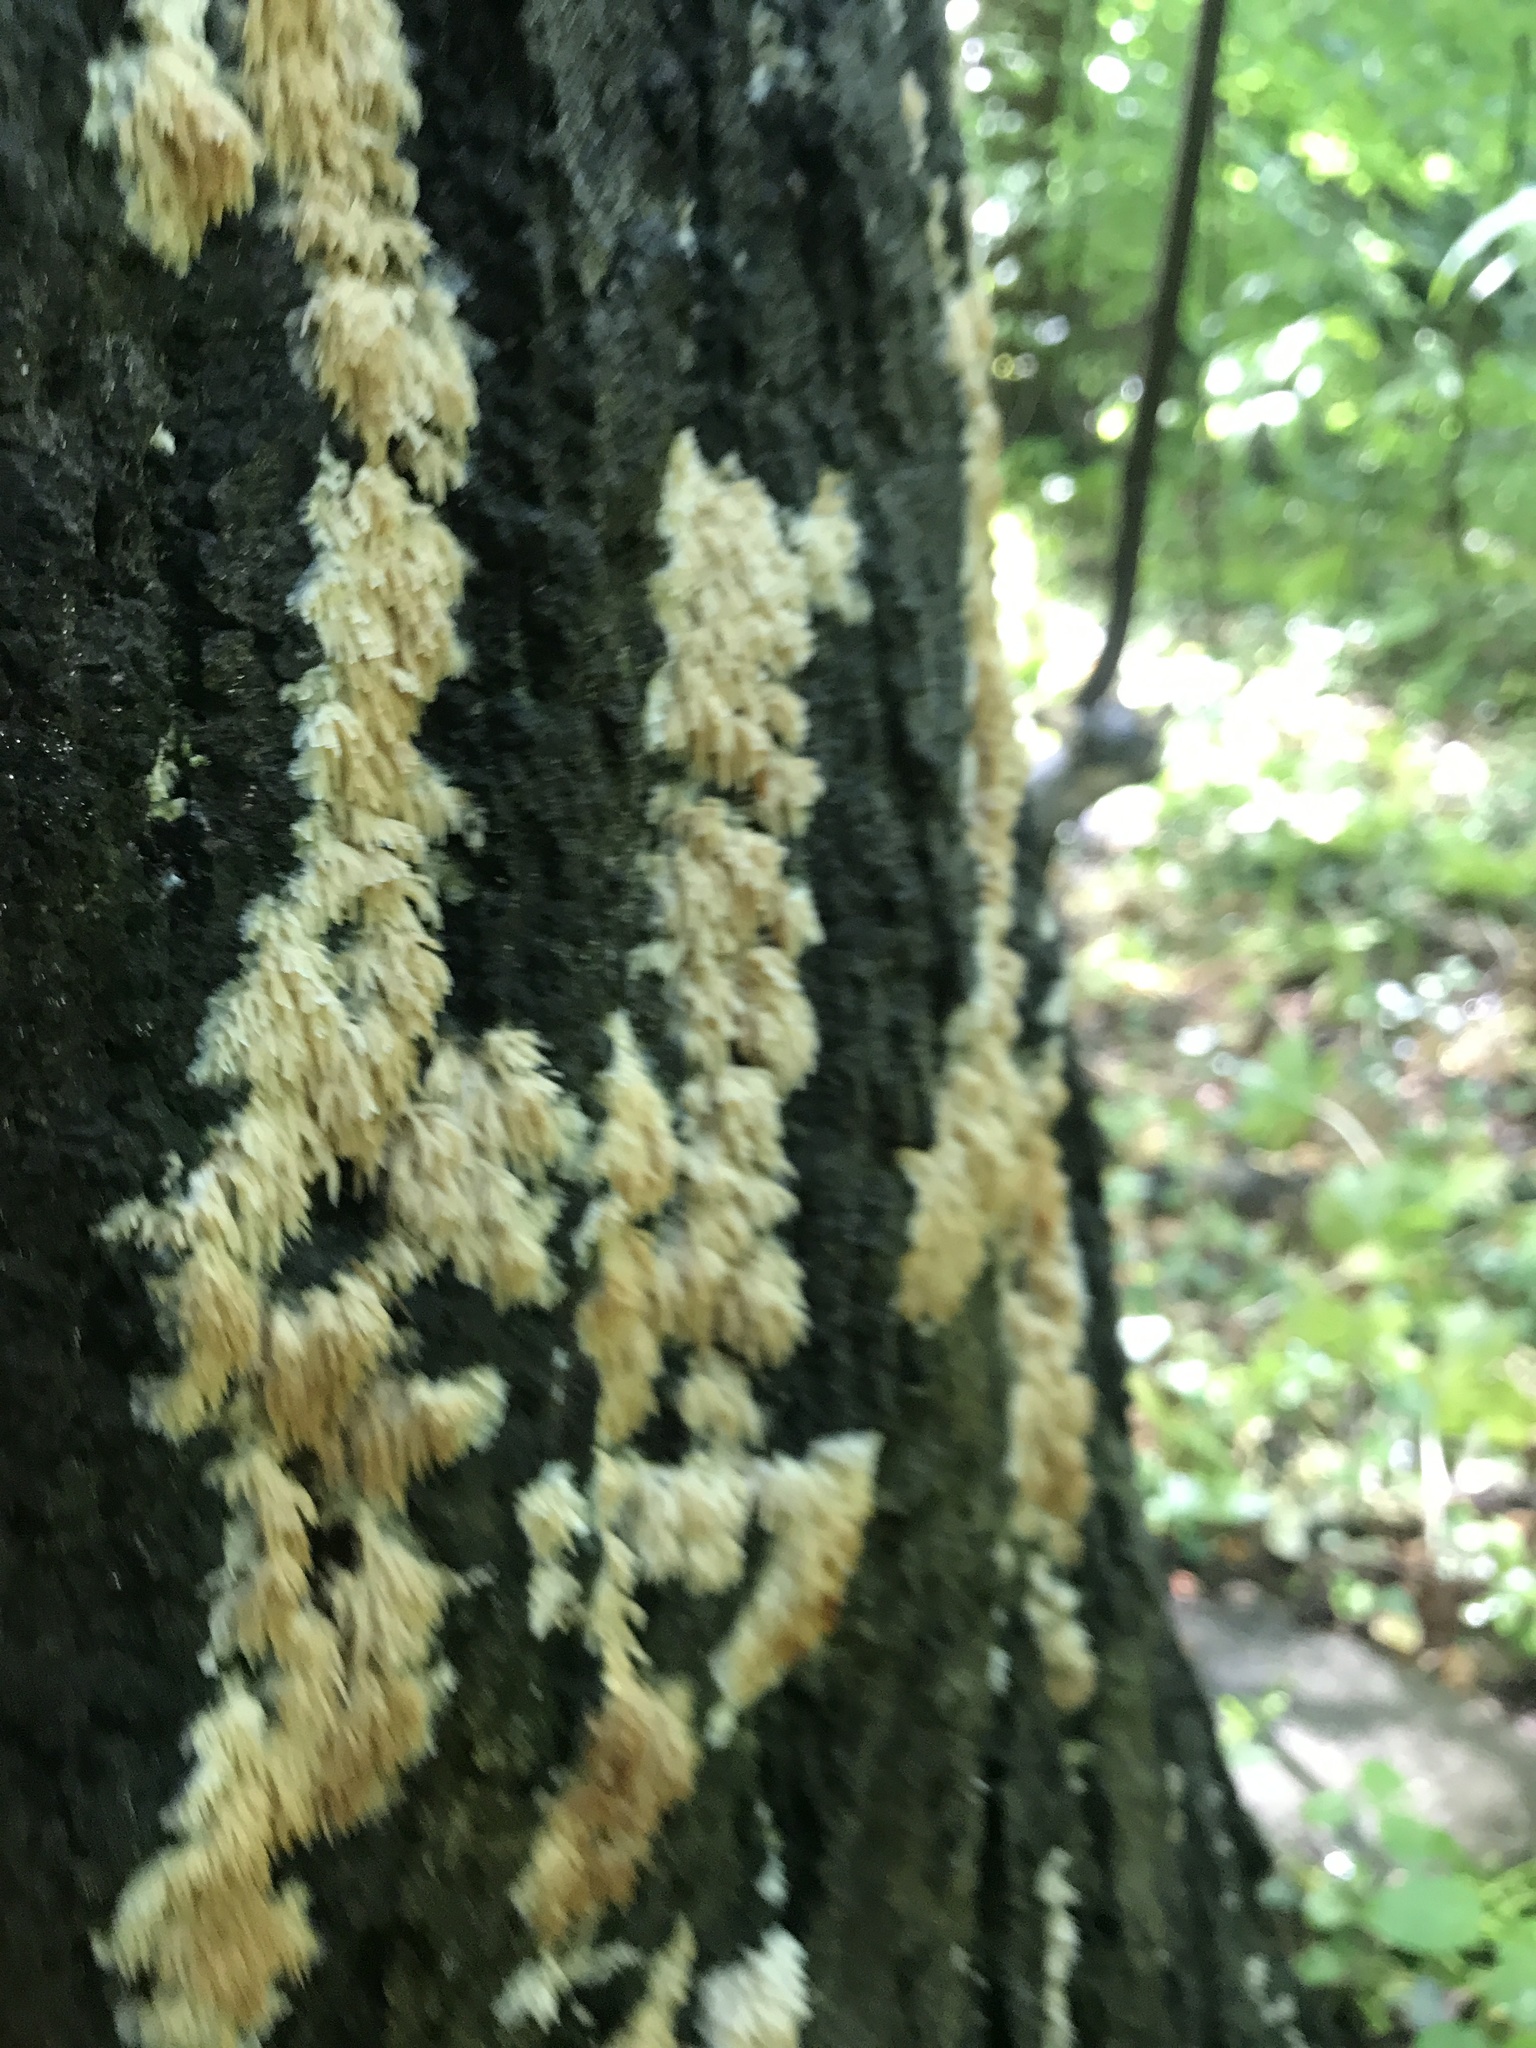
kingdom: Fungi
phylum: Basidiomycota
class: Agaricomycetes
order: Agaricales
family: Radulomycetaceae
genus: Radulomyces
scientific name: Radulomyces copelandii
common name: Asian beauty
